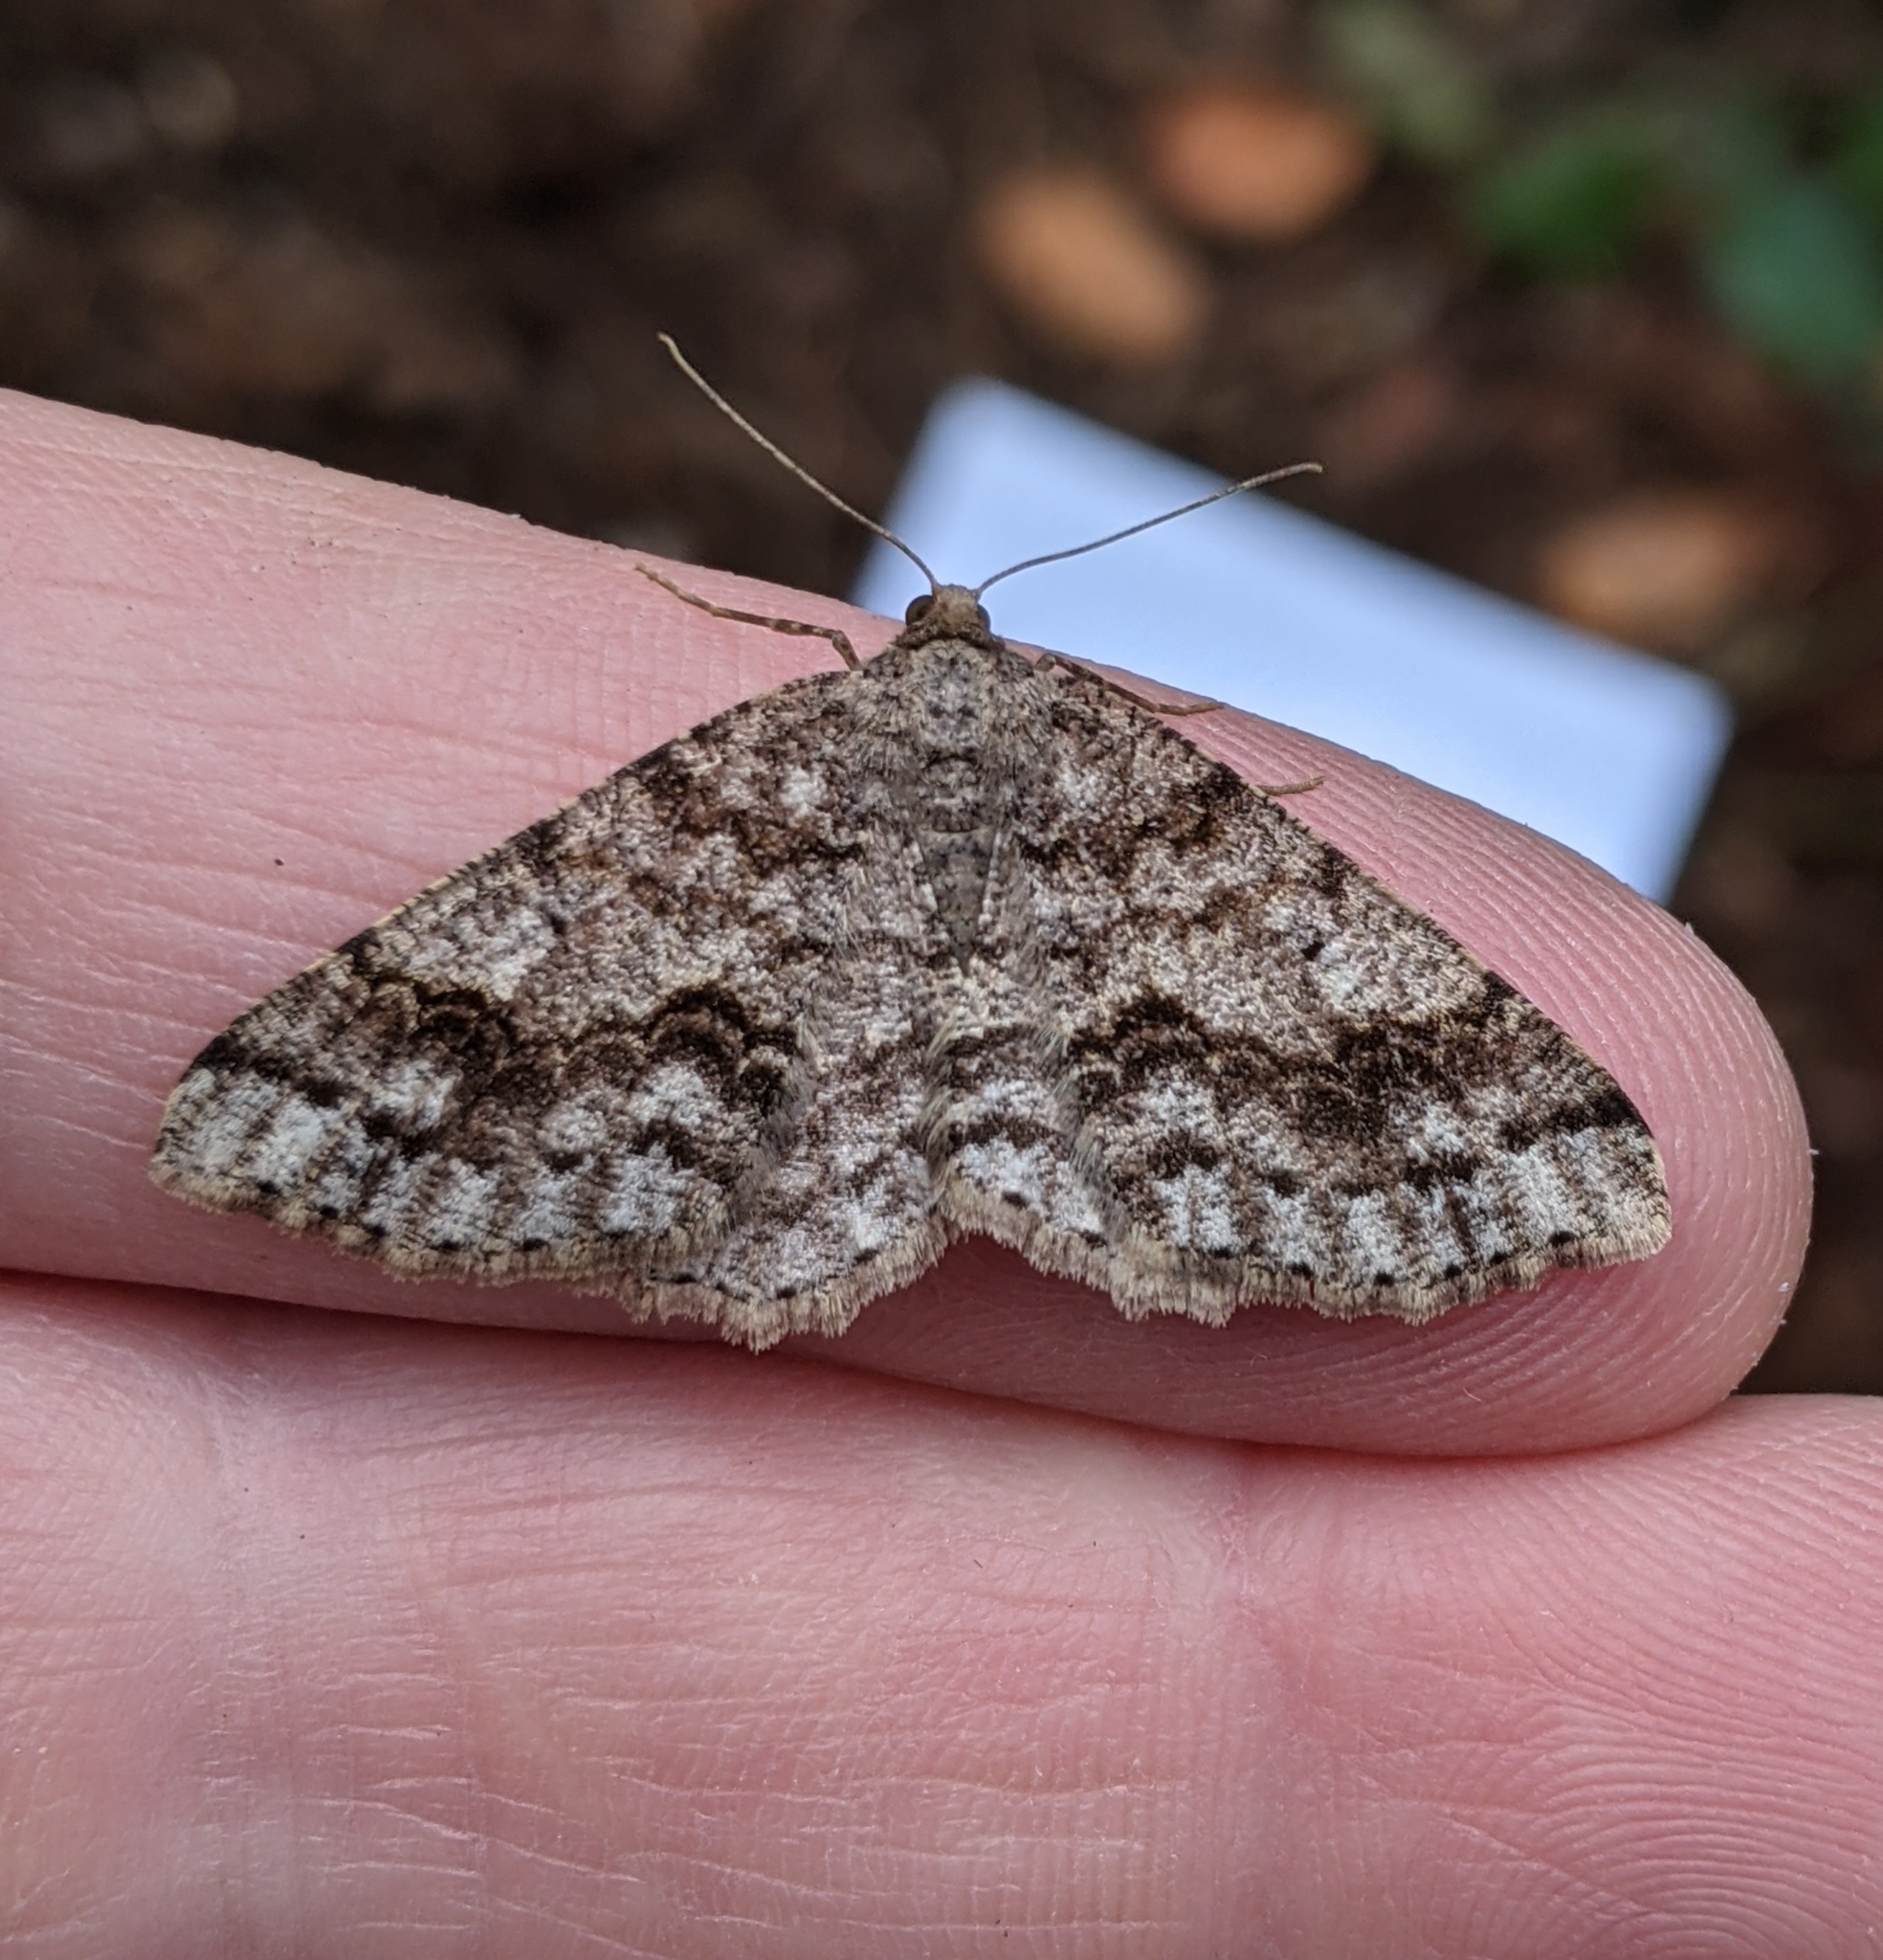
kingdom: Animalia
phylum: Arthropoda
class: Insecta
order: Lepidoptera
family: Geometridae
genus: Melanolophia
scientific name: Melanolophia imitata
